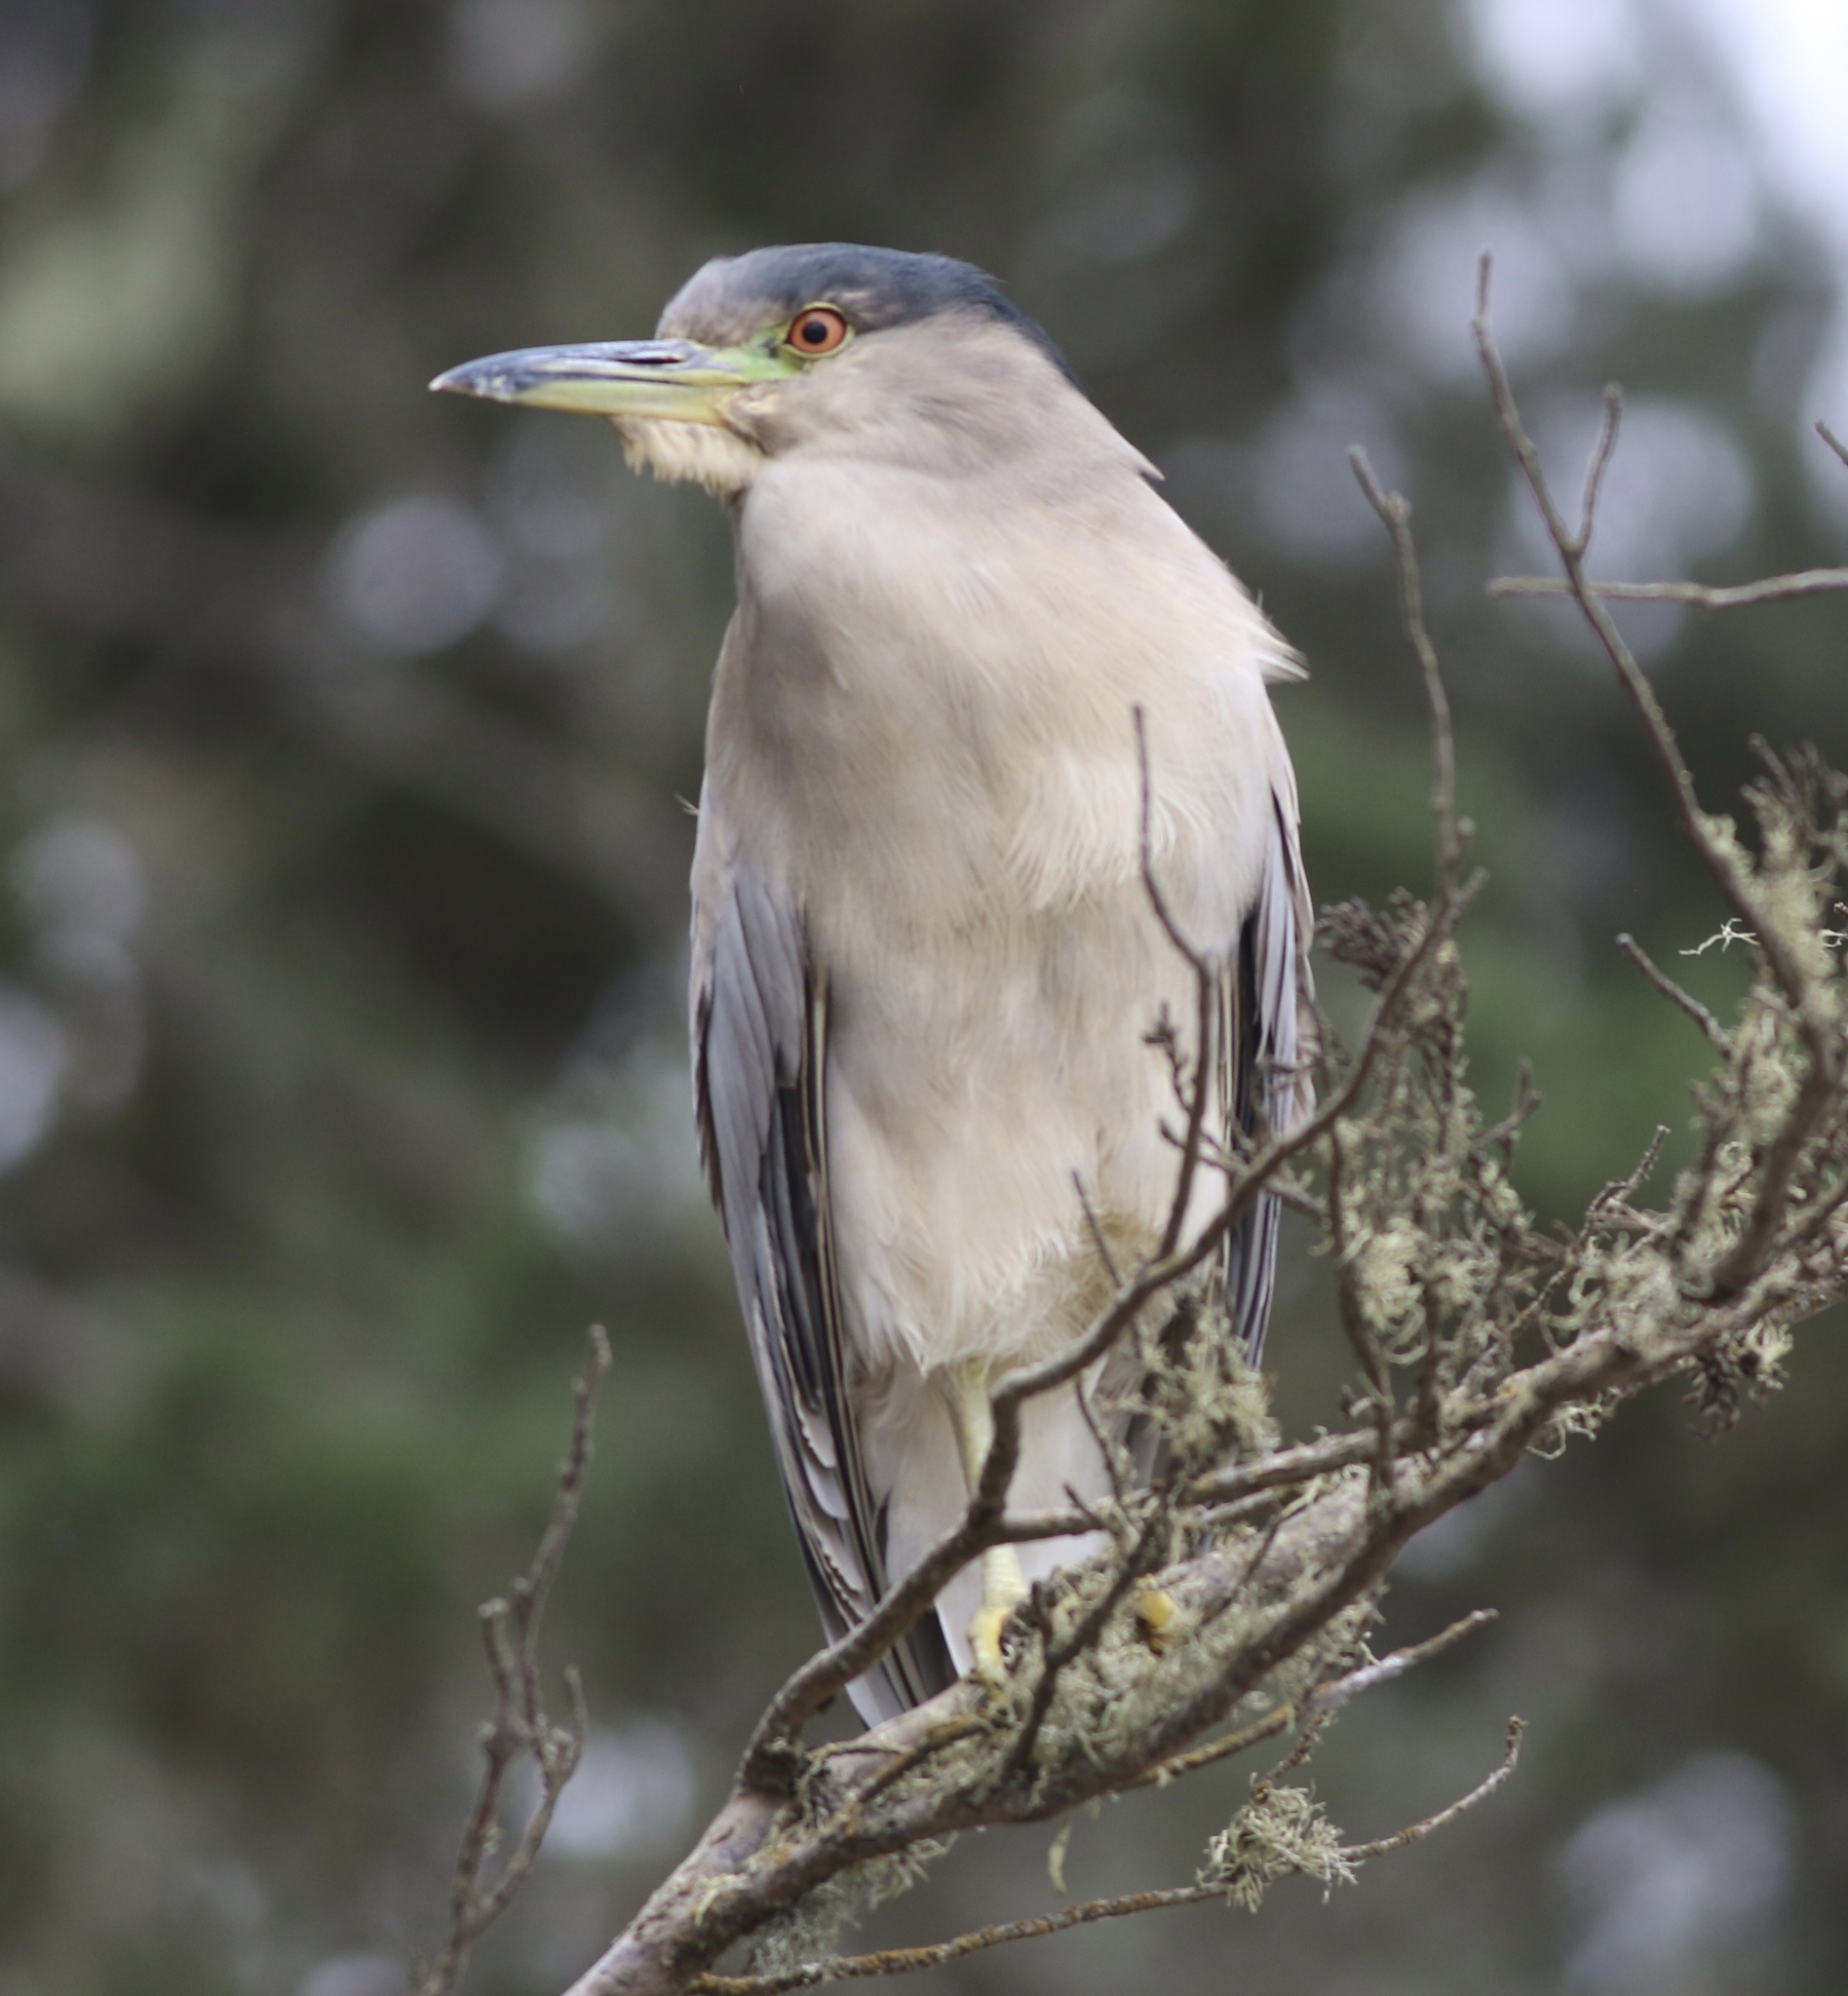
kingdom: Animalia
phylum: Chordata
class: Aves
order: Pelecaniformes
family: Ardeidae
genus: Nycticorax
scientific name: Nycticorax nycticorax
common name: Black-crowned night heron
